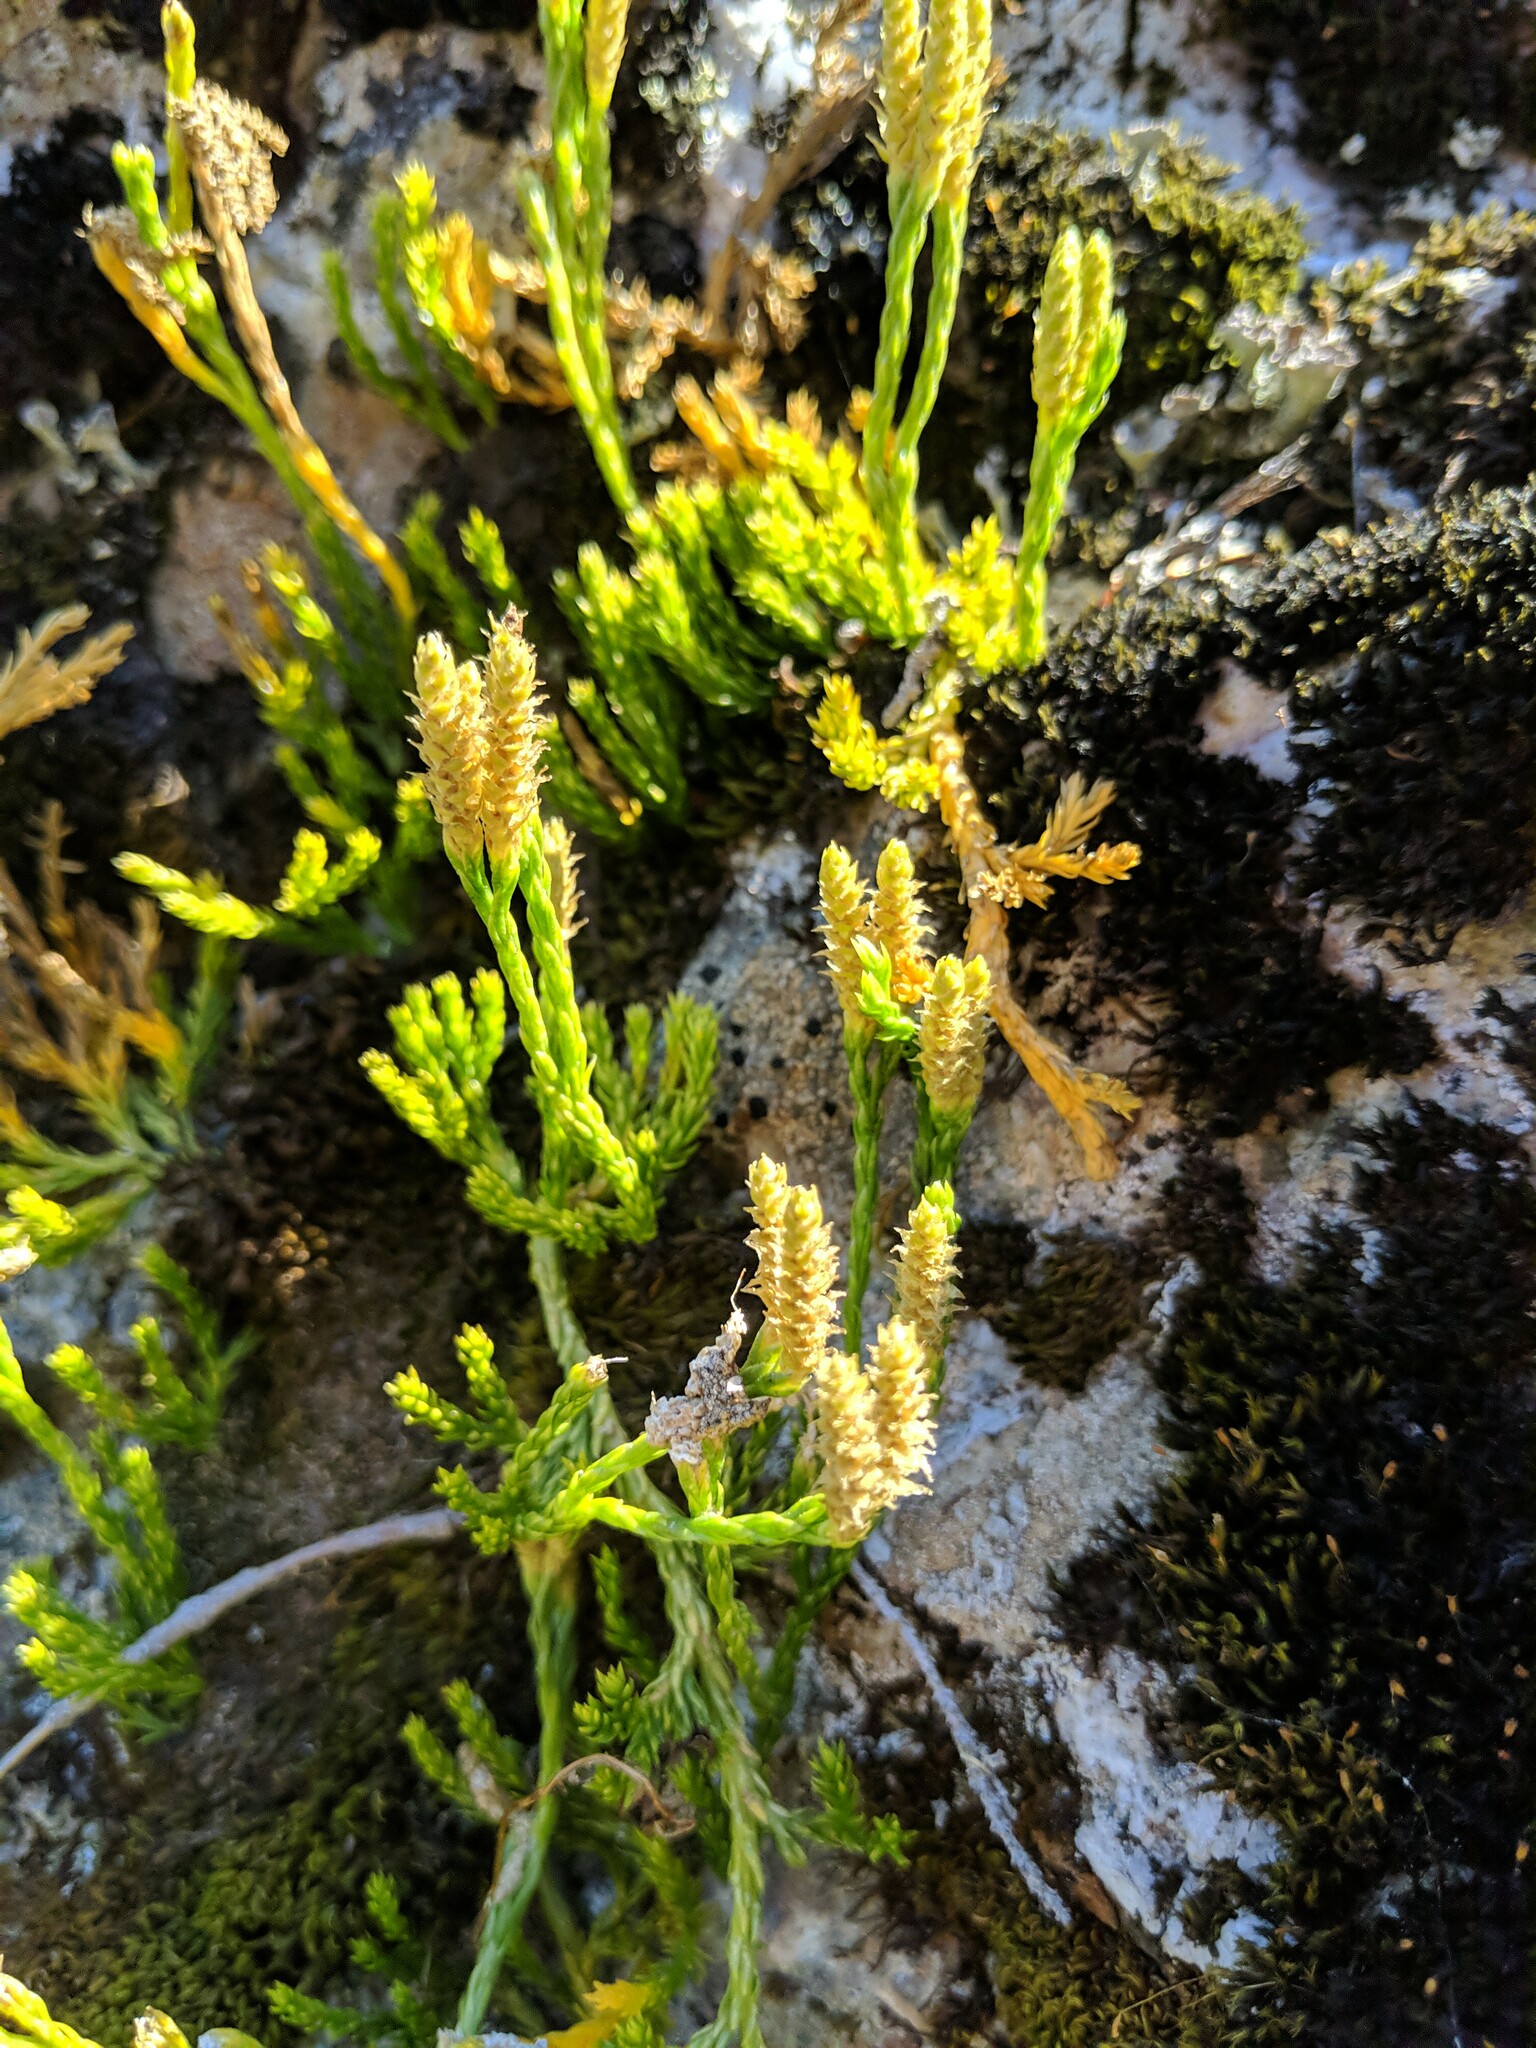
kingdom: Plantae
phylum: Tracheophyta
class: Lycopodiopsida
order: Lycopodiales
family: Lycopodiaceae
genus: Diphasiastrum
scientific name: Diphasiastrum sitchense
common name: Alaska clubmoss
